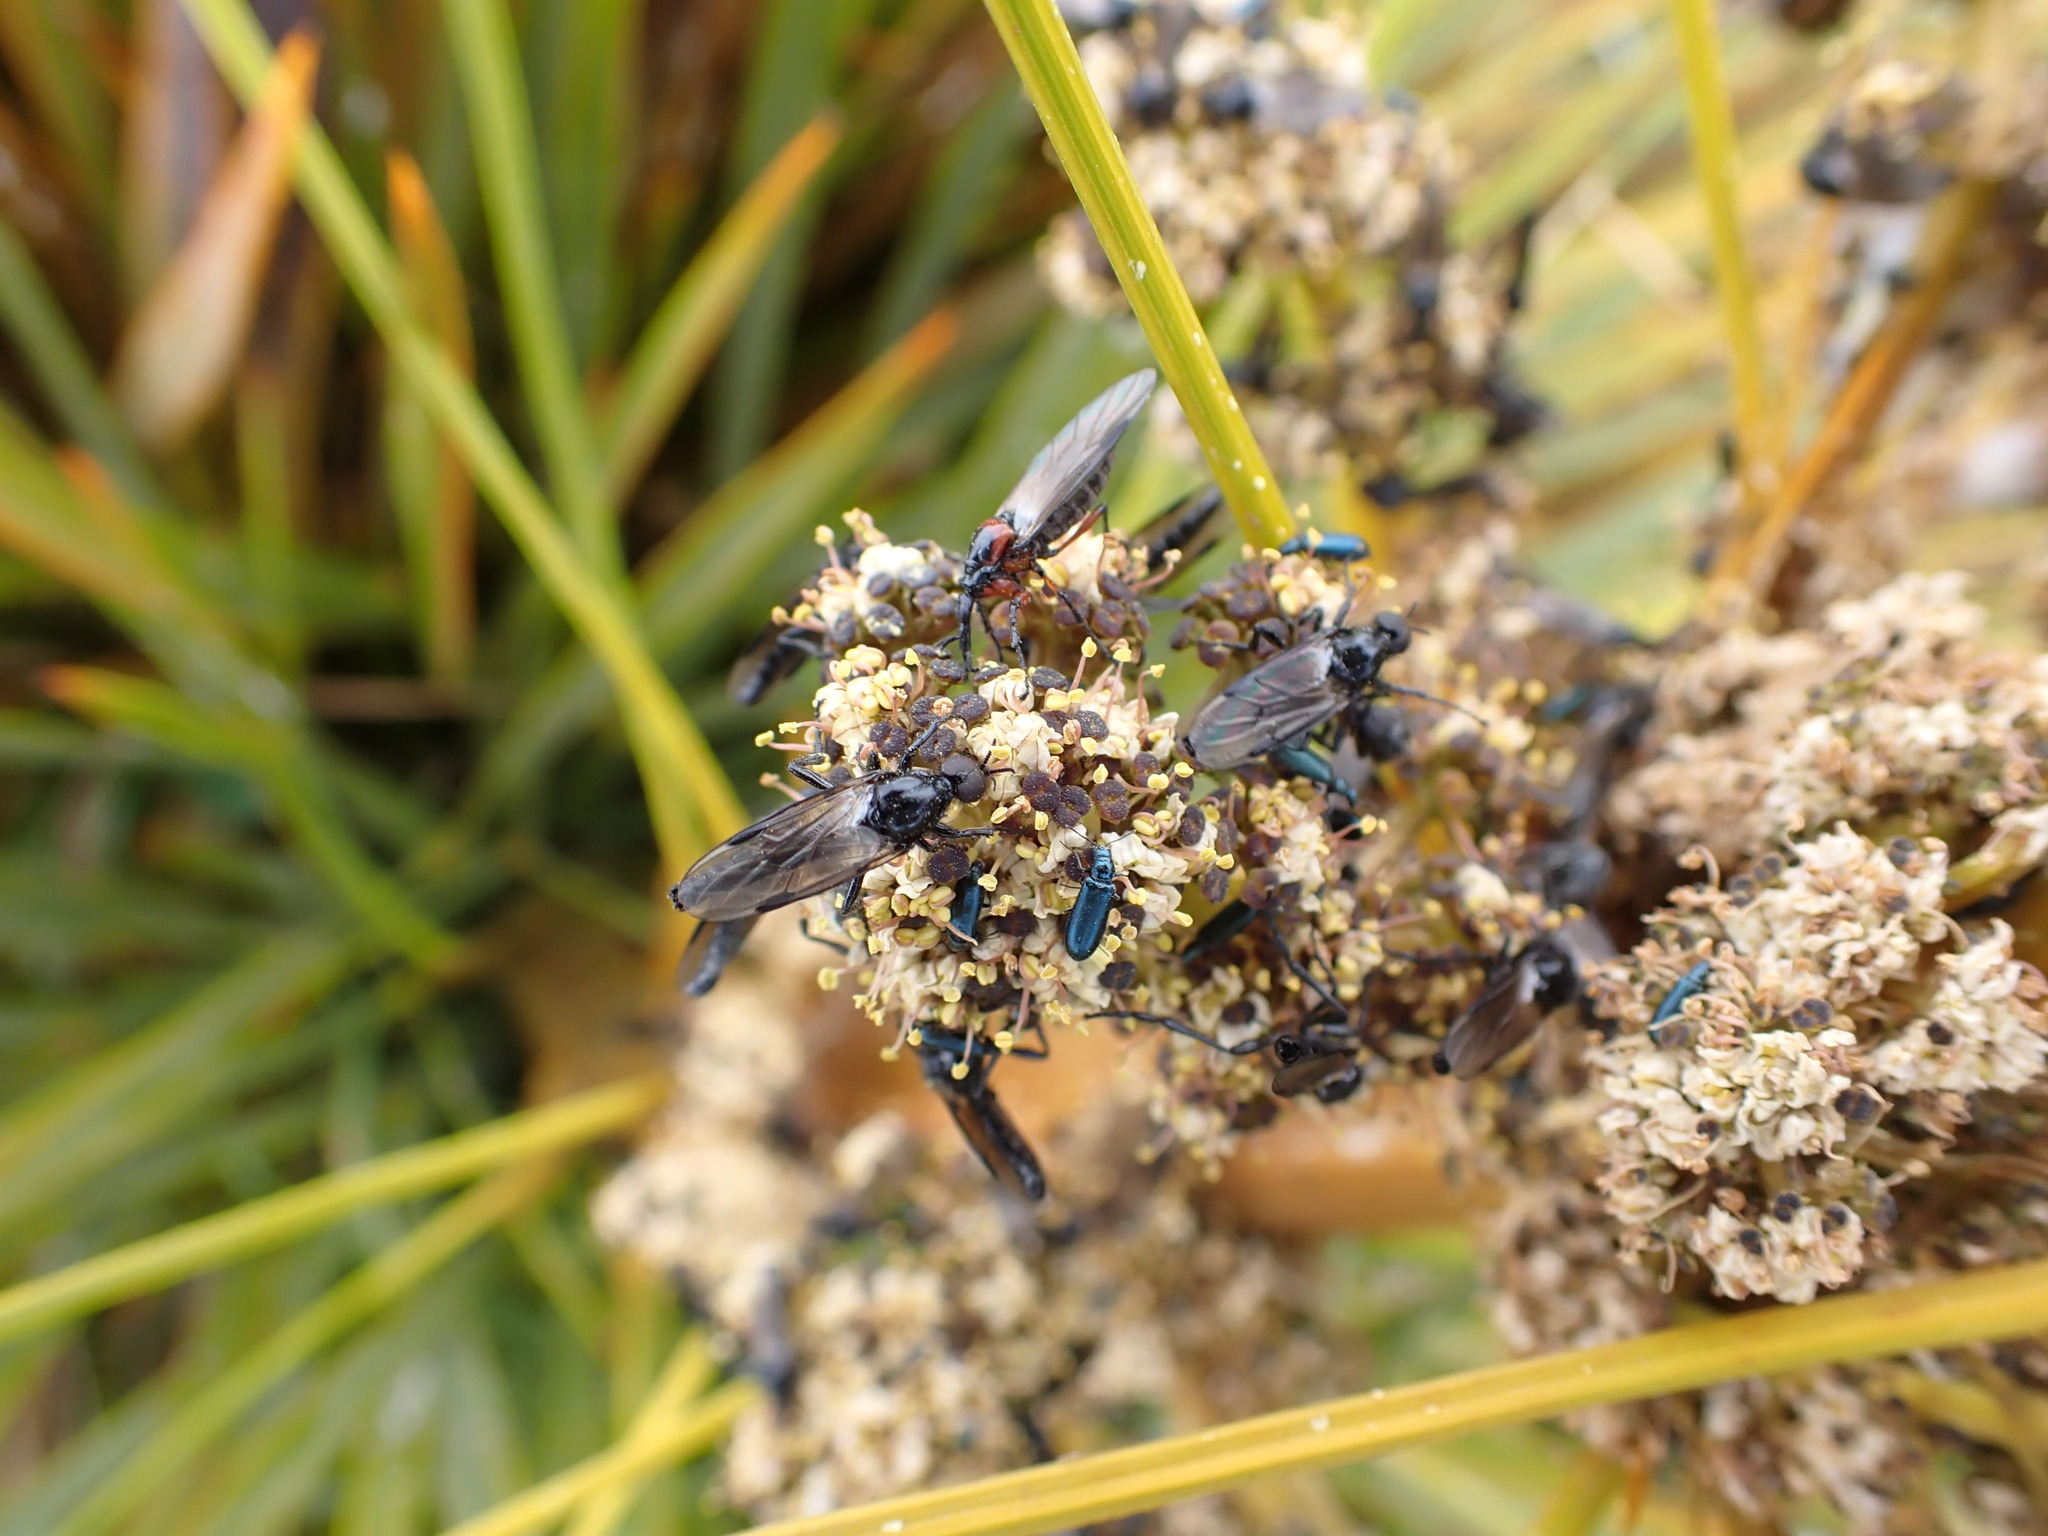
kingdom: Animalia
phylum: Arthropoda
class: Insecta
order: Diptera
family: Bibionidae
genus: Dilophus
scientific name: Dilophus nigrostigma
